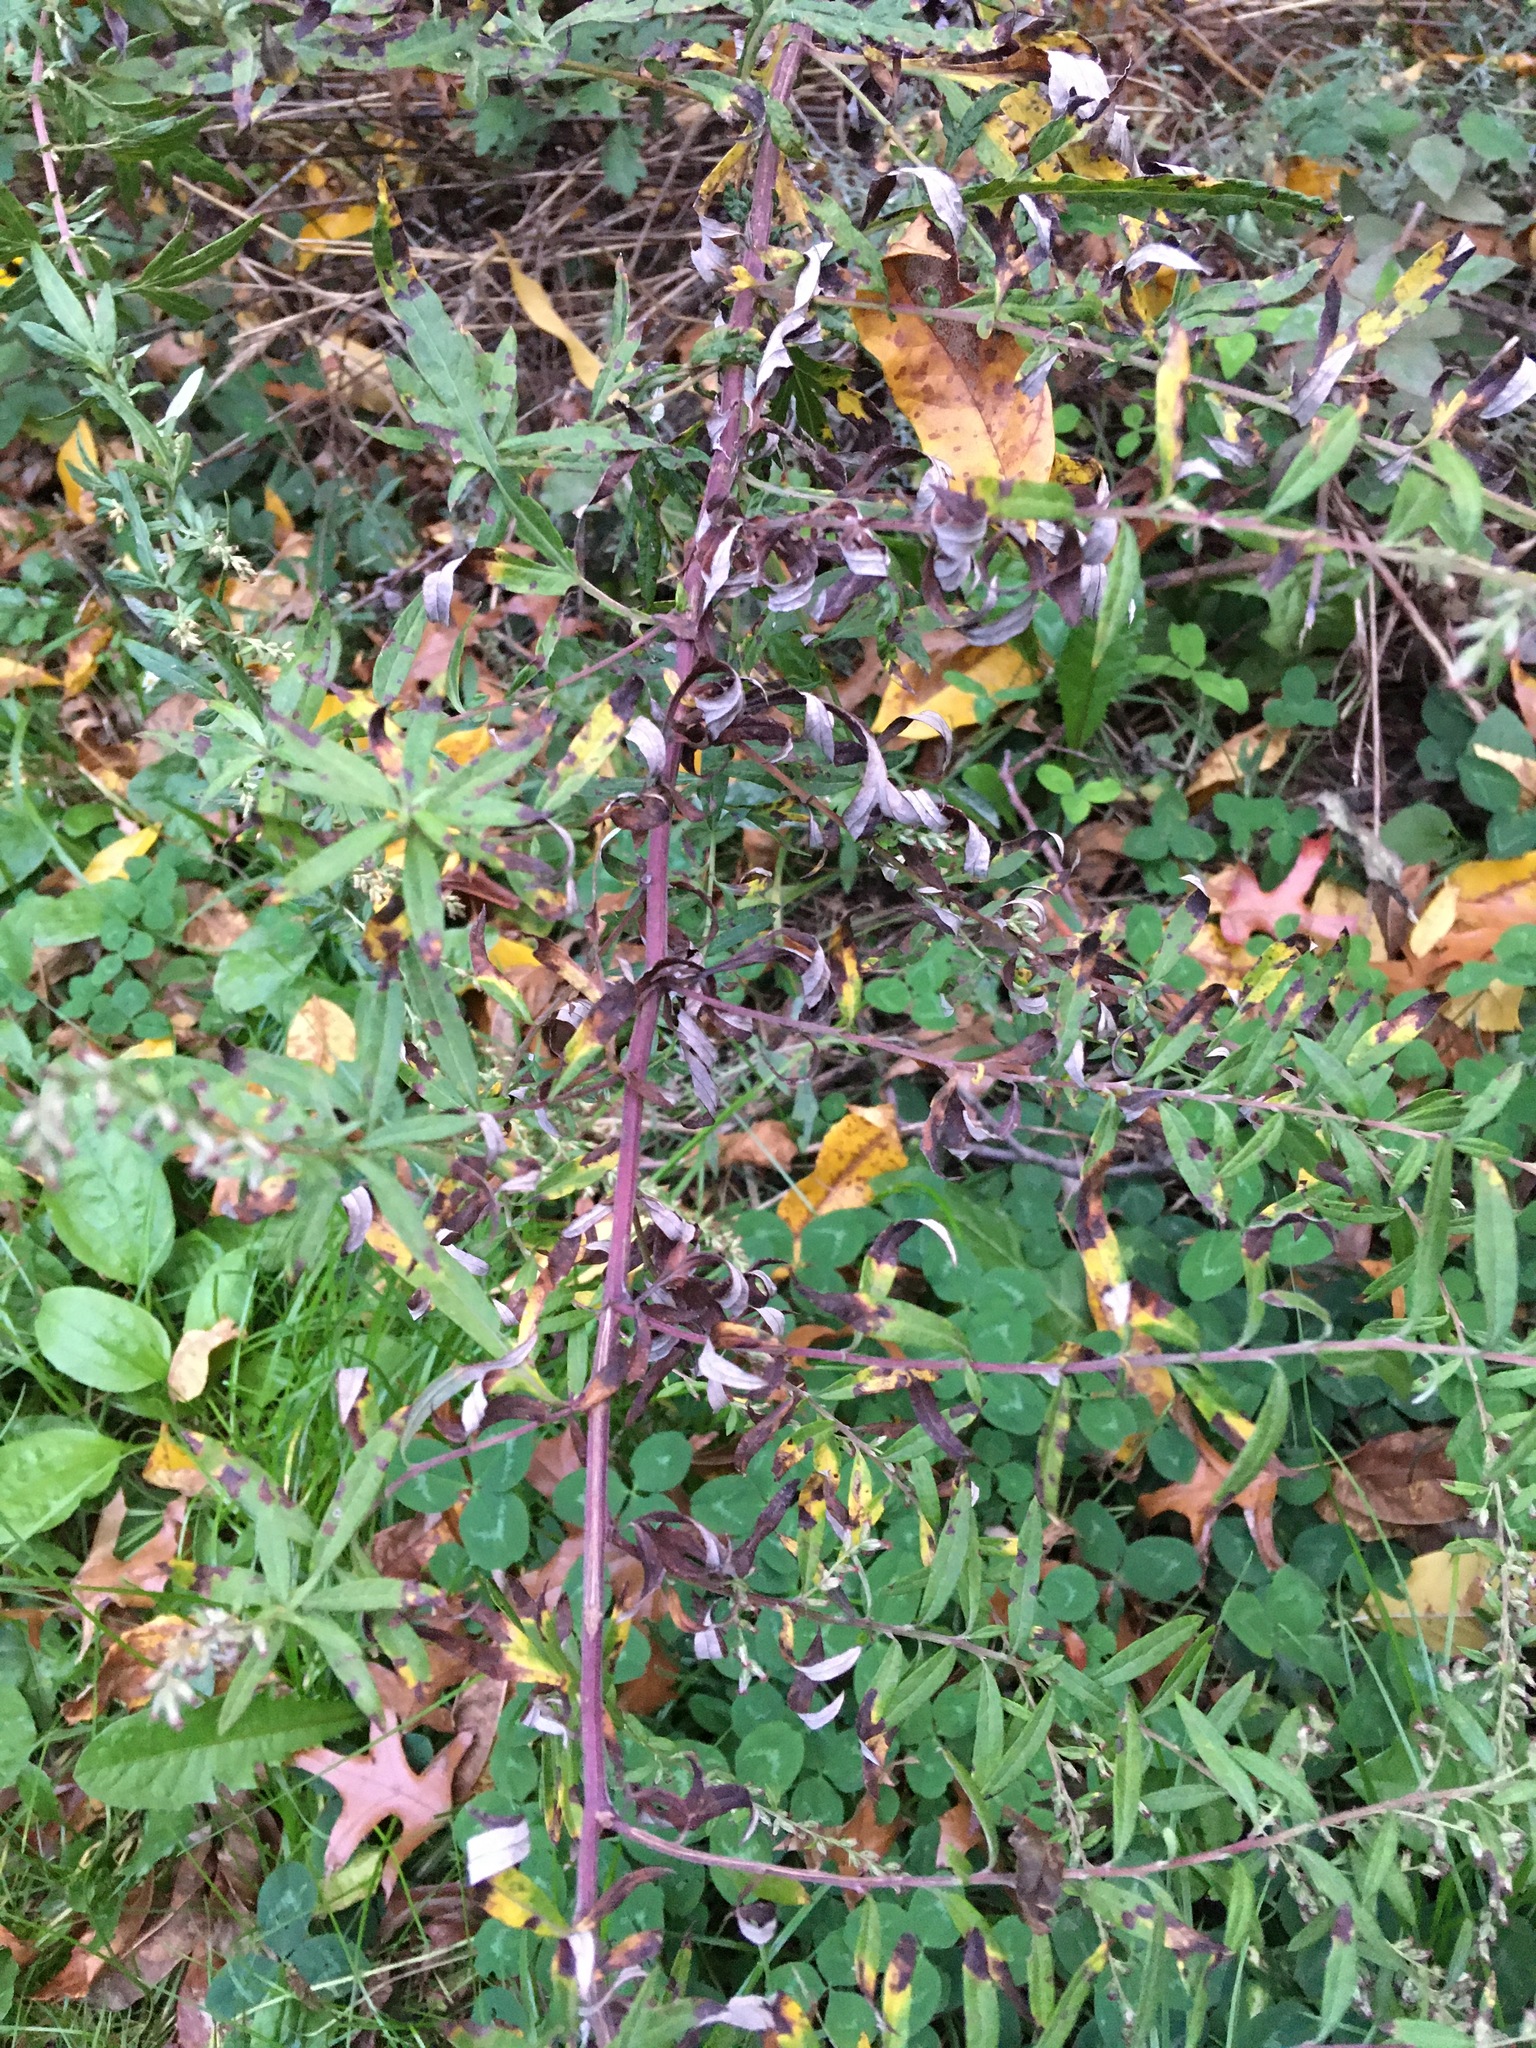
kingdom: Plantae
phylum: Tracheophyta
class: Magnoliopsida
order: Asterales
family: Asteraceae
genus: Artemisia
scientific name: Artemisia vulgaris
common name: Mugwort
